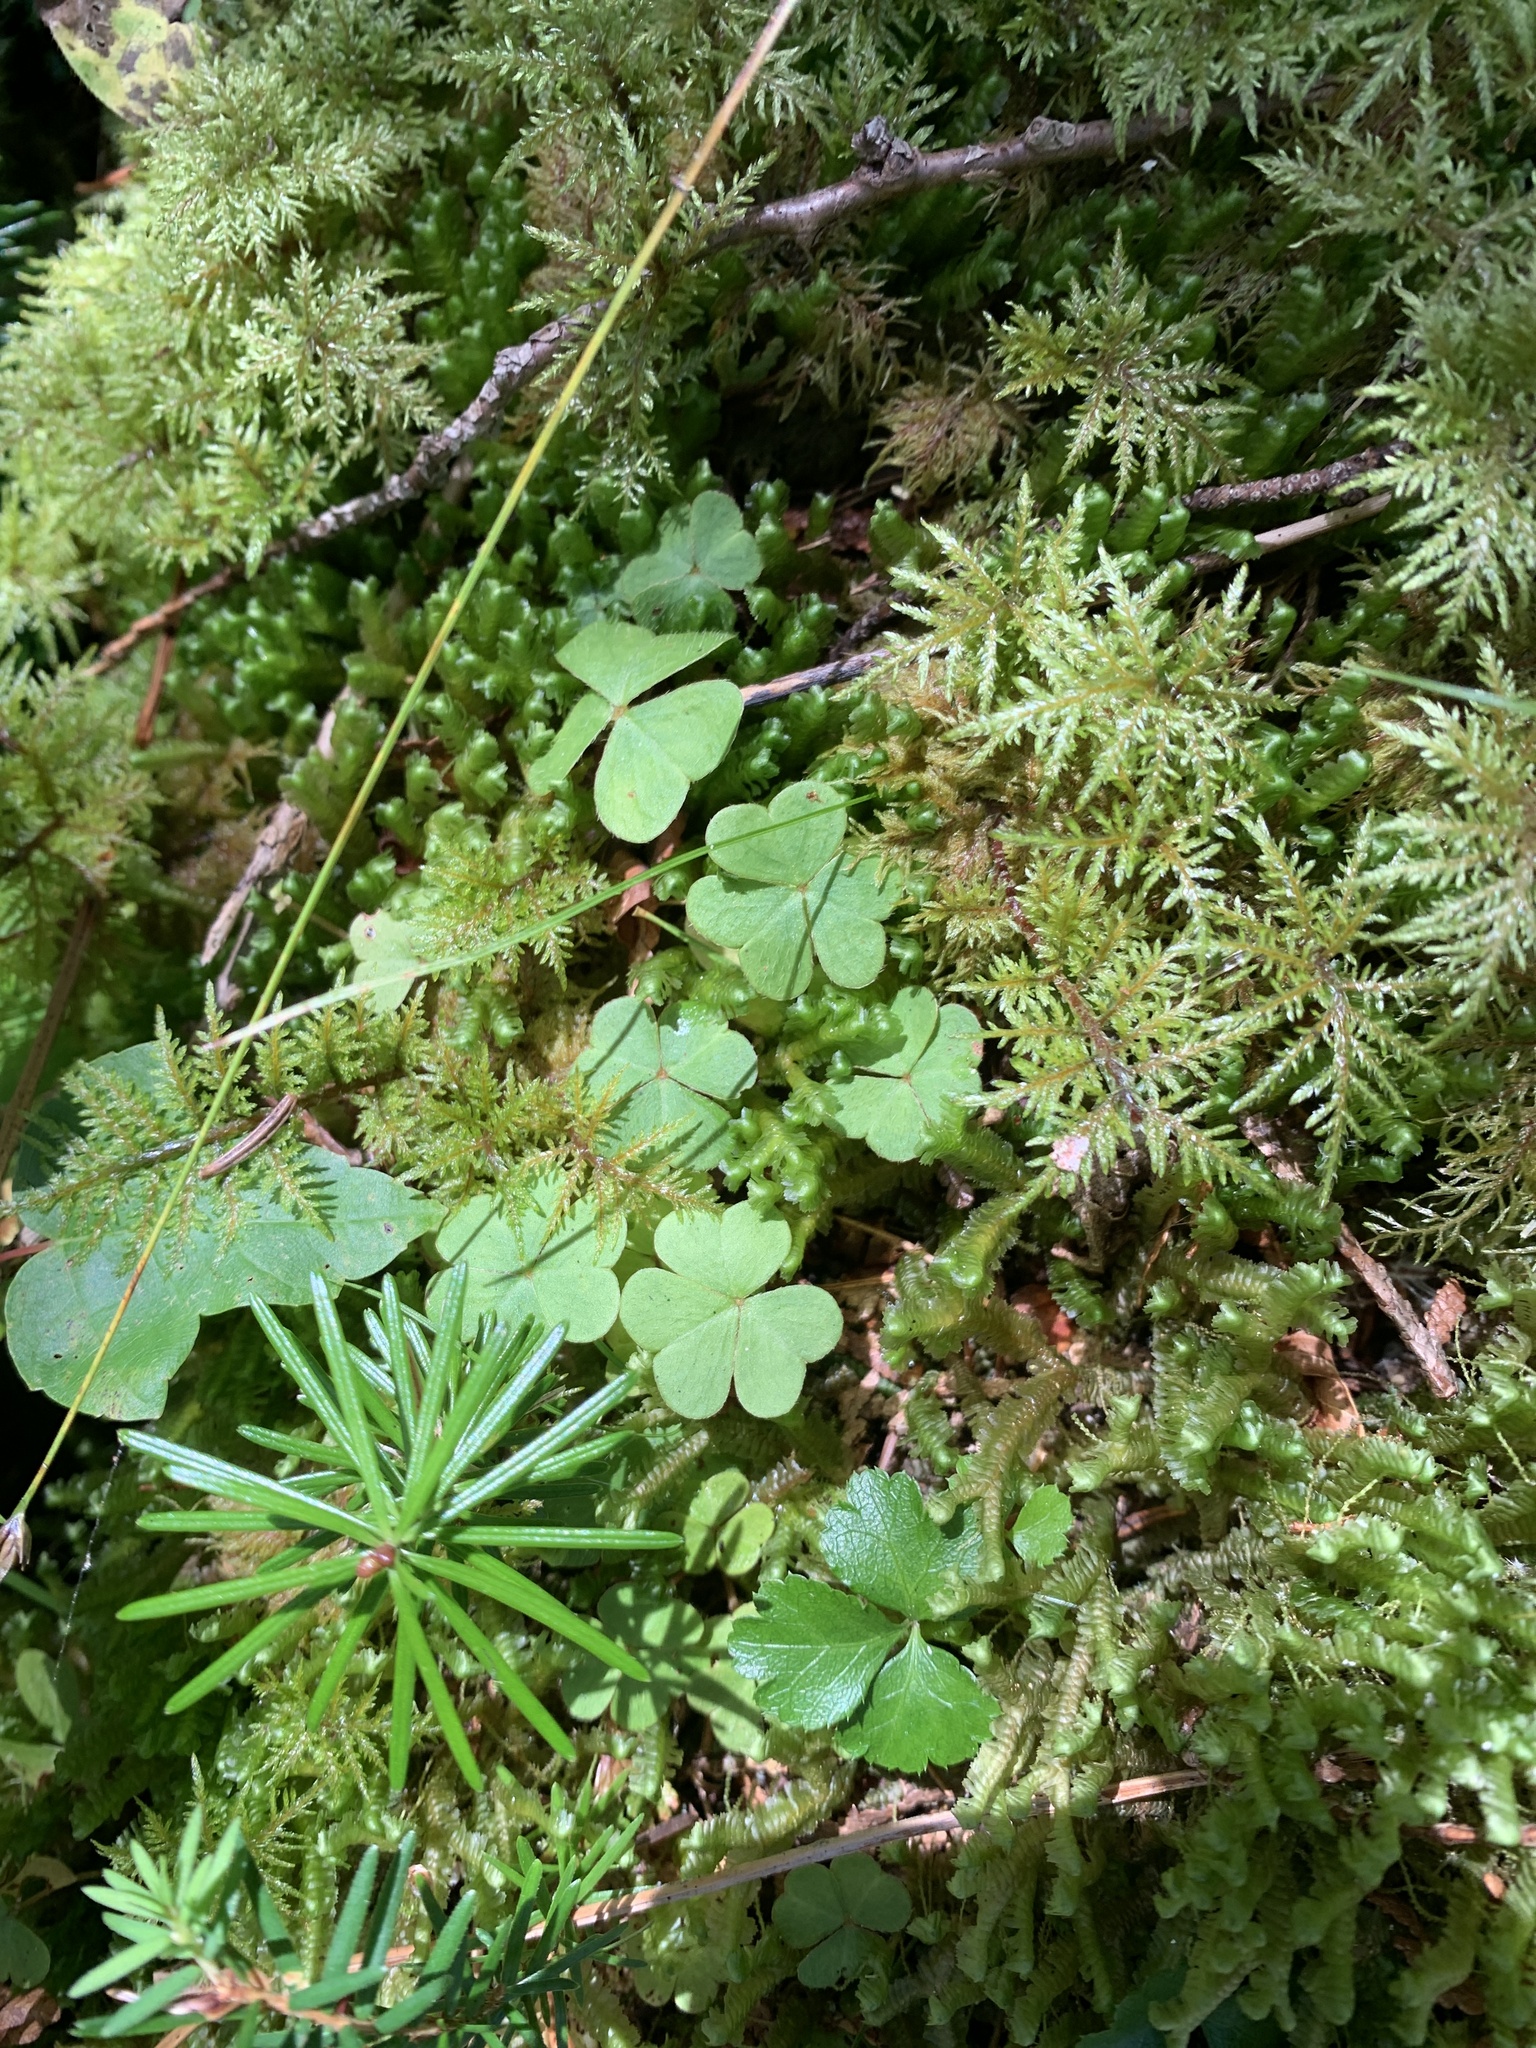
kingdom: Plantae
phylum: Tracheophyta
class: Magnoliopsida
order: Oxalidales
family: Oxalidaceae
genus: Oxalis
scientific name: Oxalis montana
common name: American wood-sorrel
